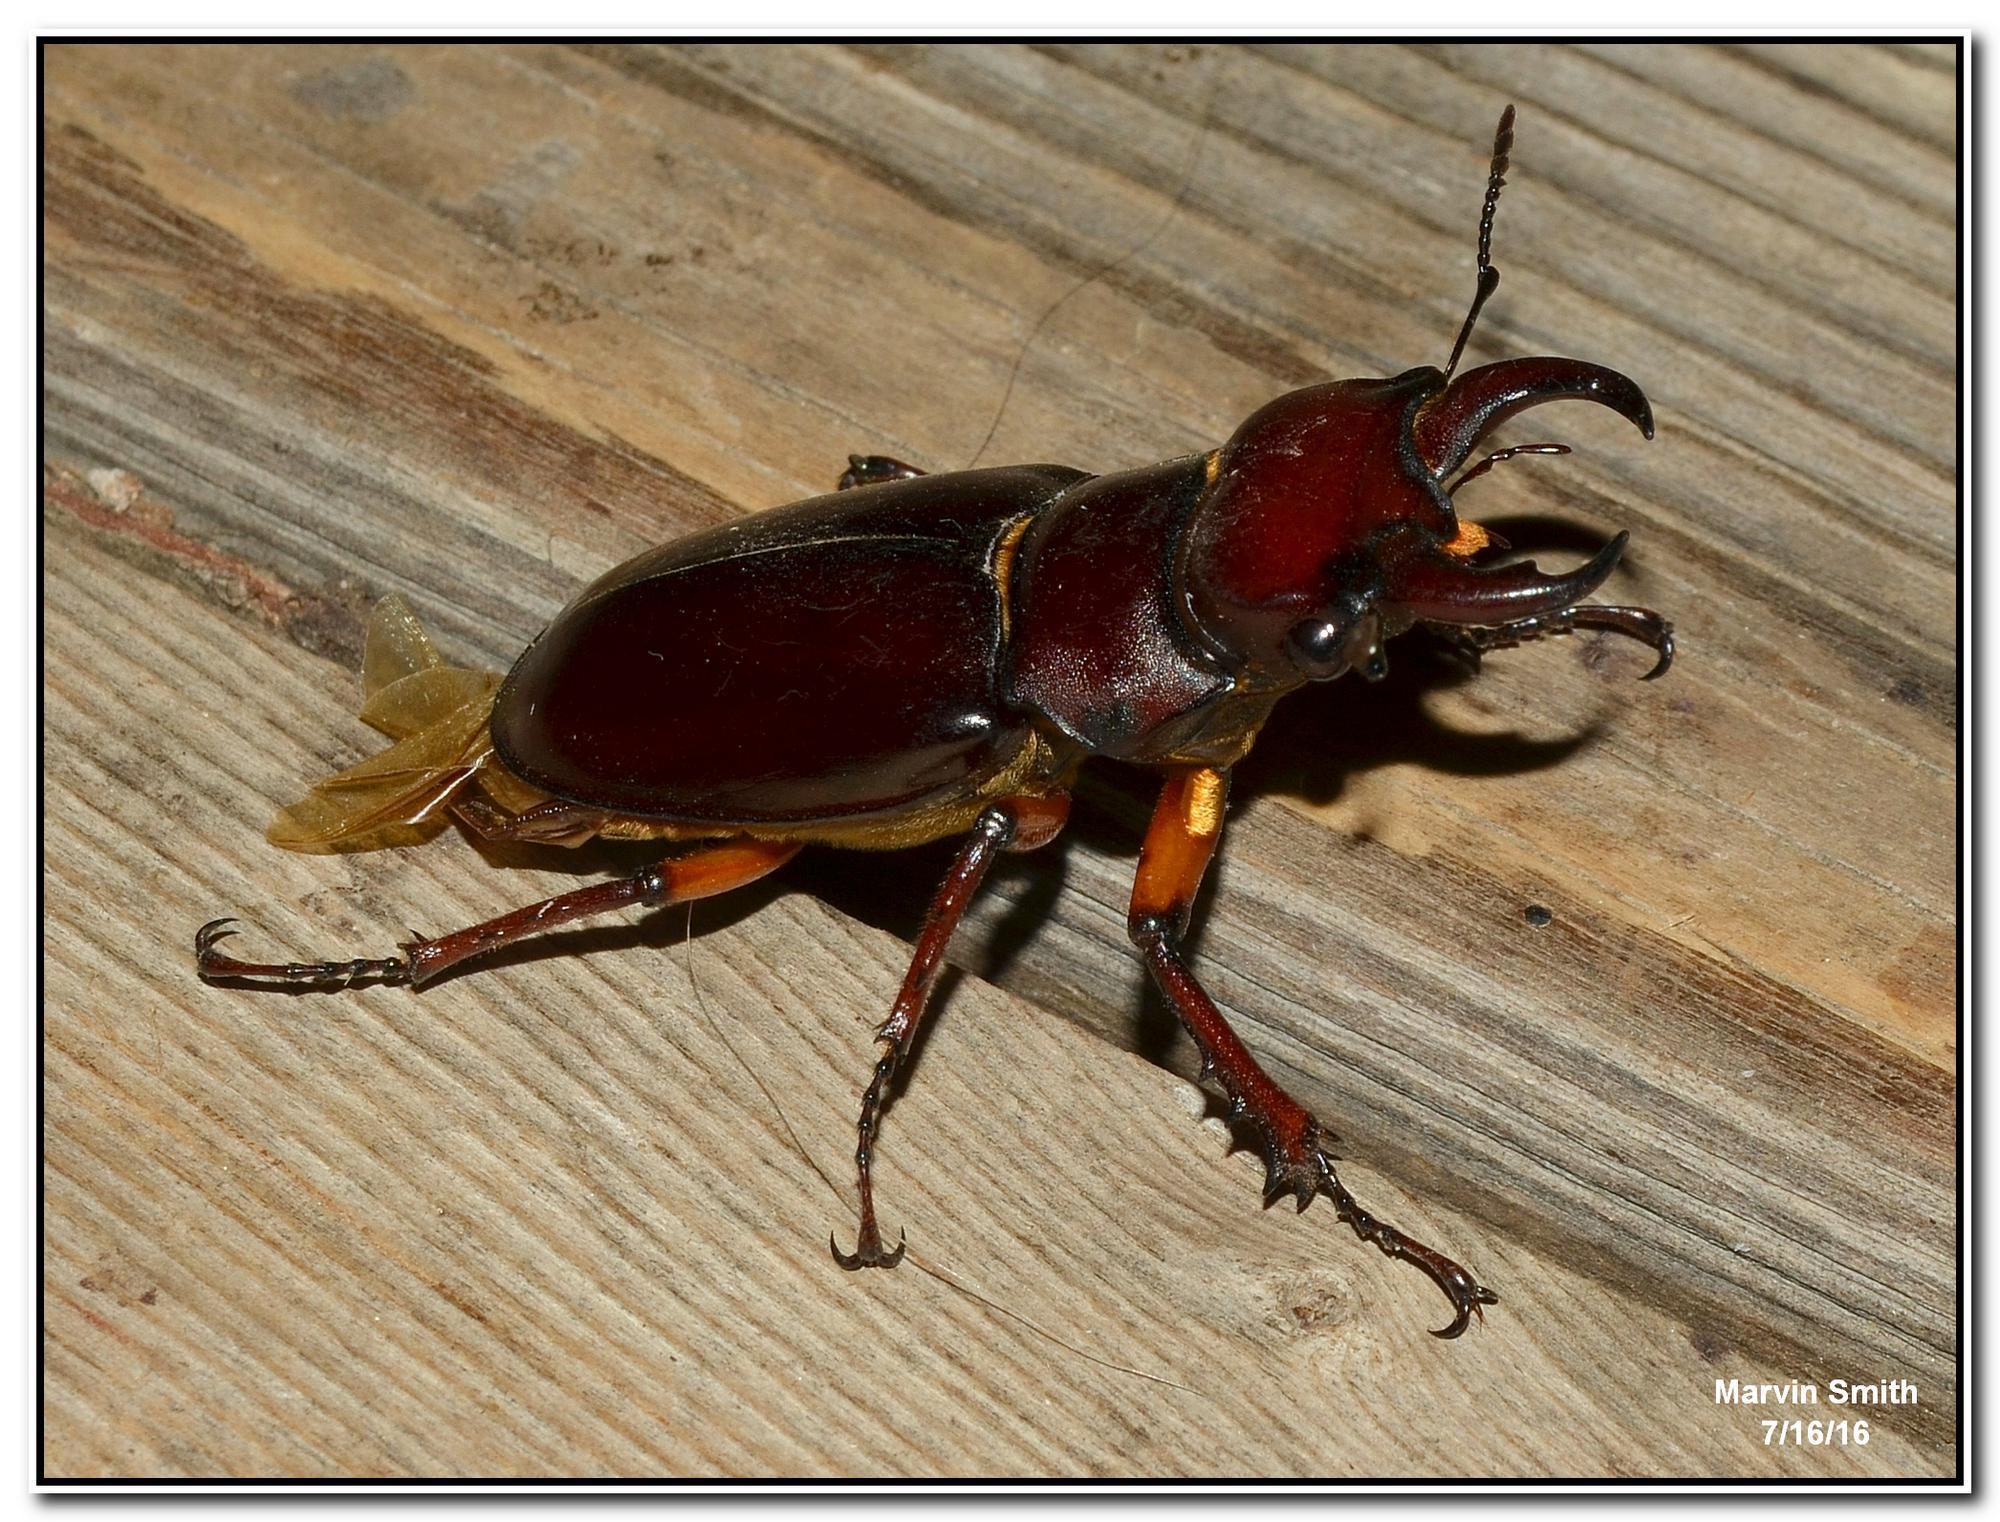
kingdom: Animalia
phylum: Arthropoda
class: Insecta
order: Coleoptera
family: Lucanidae
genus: Lucanus
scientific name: Lucanus capreolus
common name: Stag beetle
